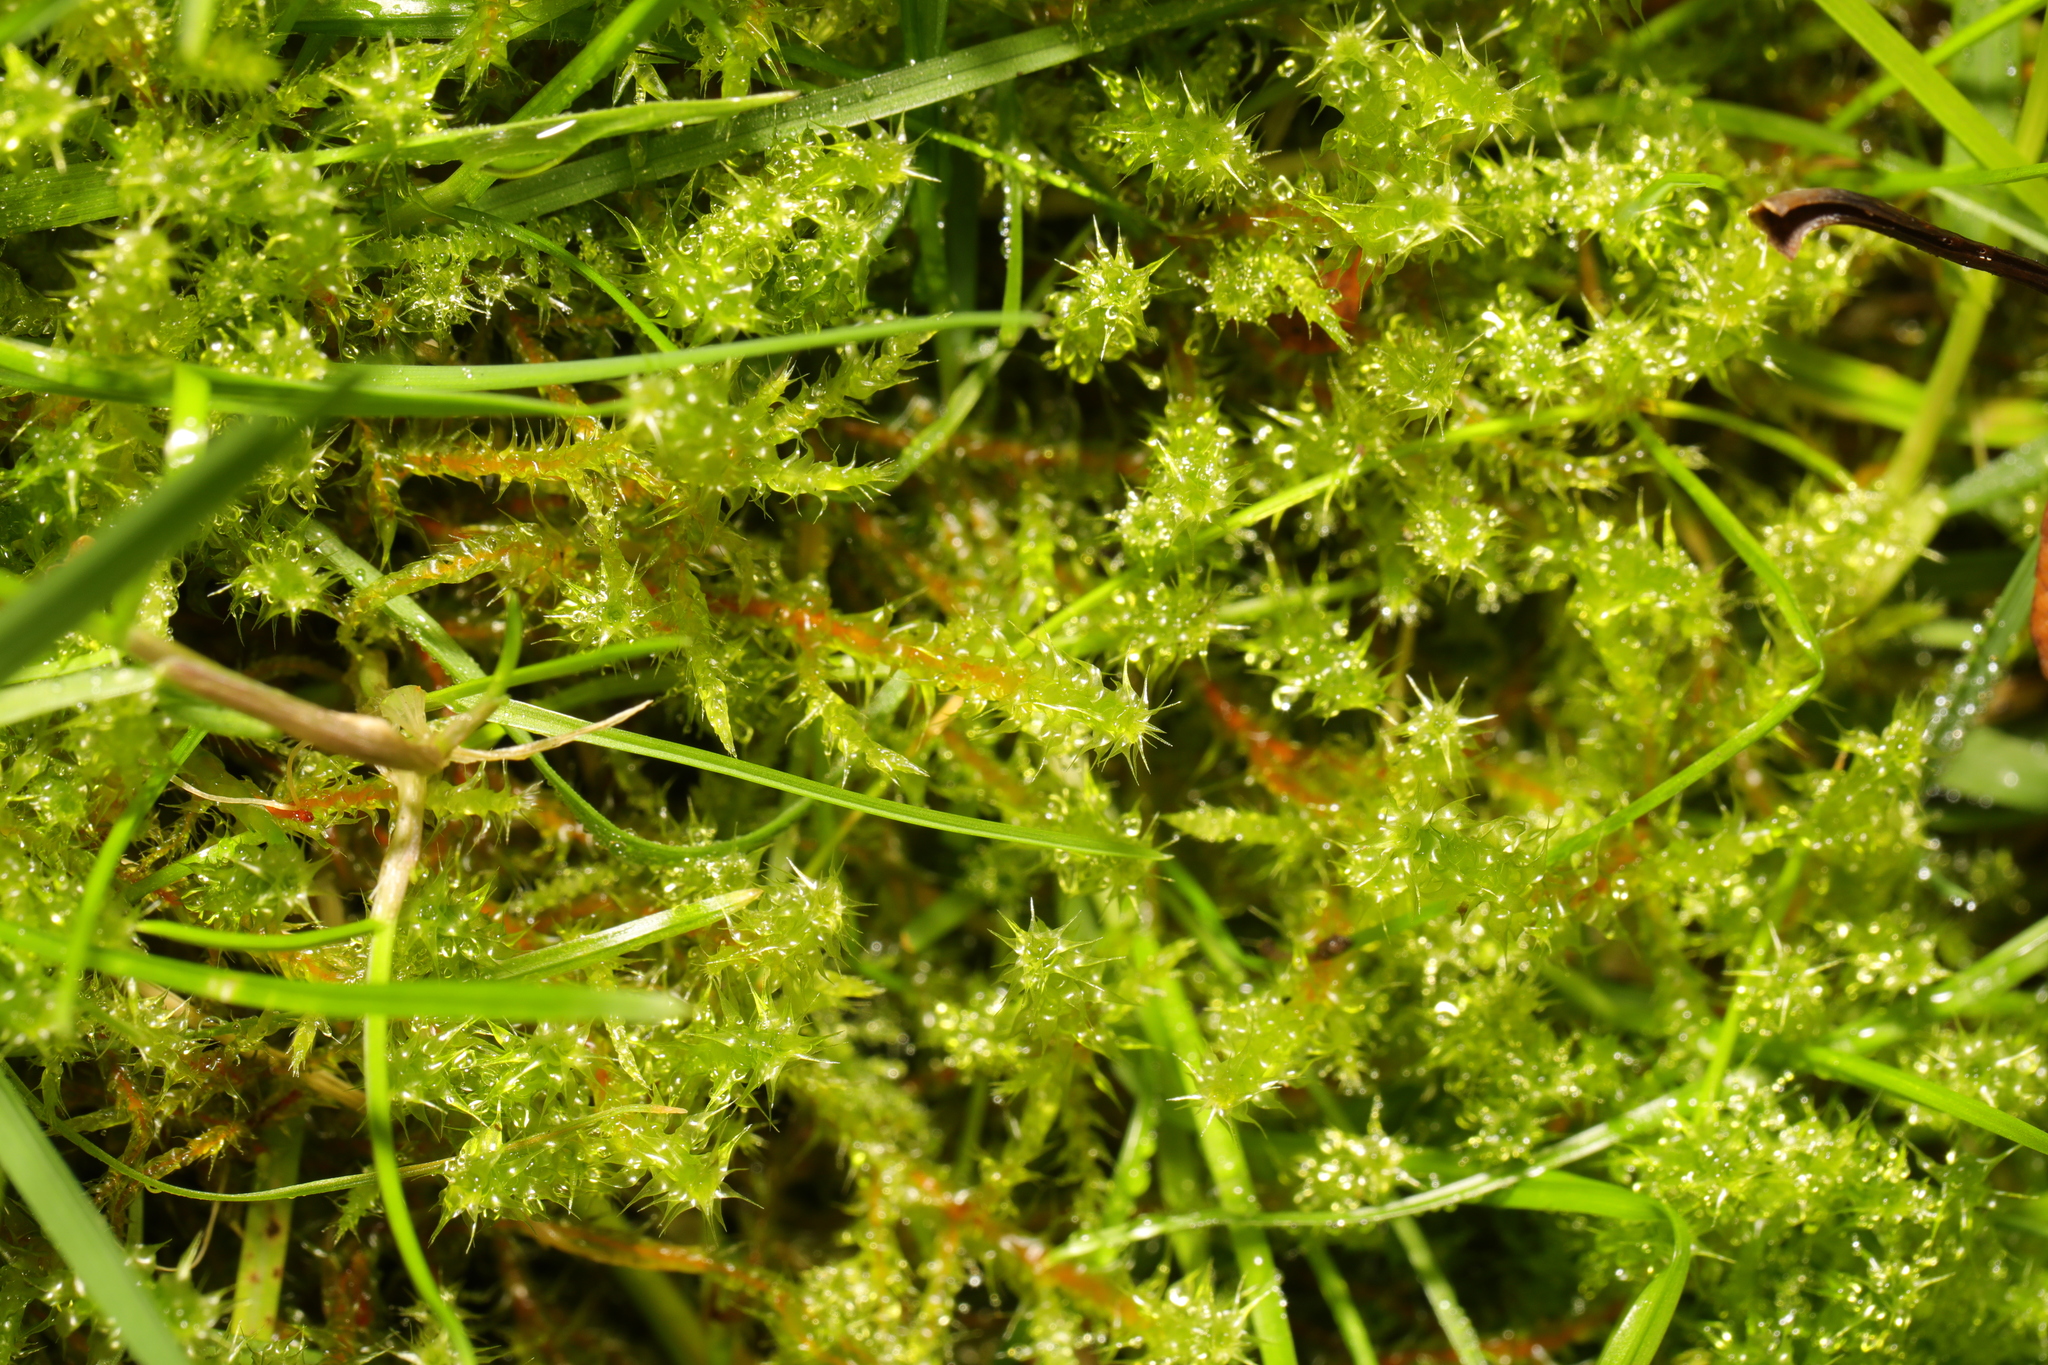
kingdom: Plantae
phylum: Bryophyta
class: Bryopsida
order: Hypnales
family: Hylocomiaceae
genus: Rhytidiadelphus
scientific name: Rhytidiadelphus squarrosus
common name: Springy turf-moss
